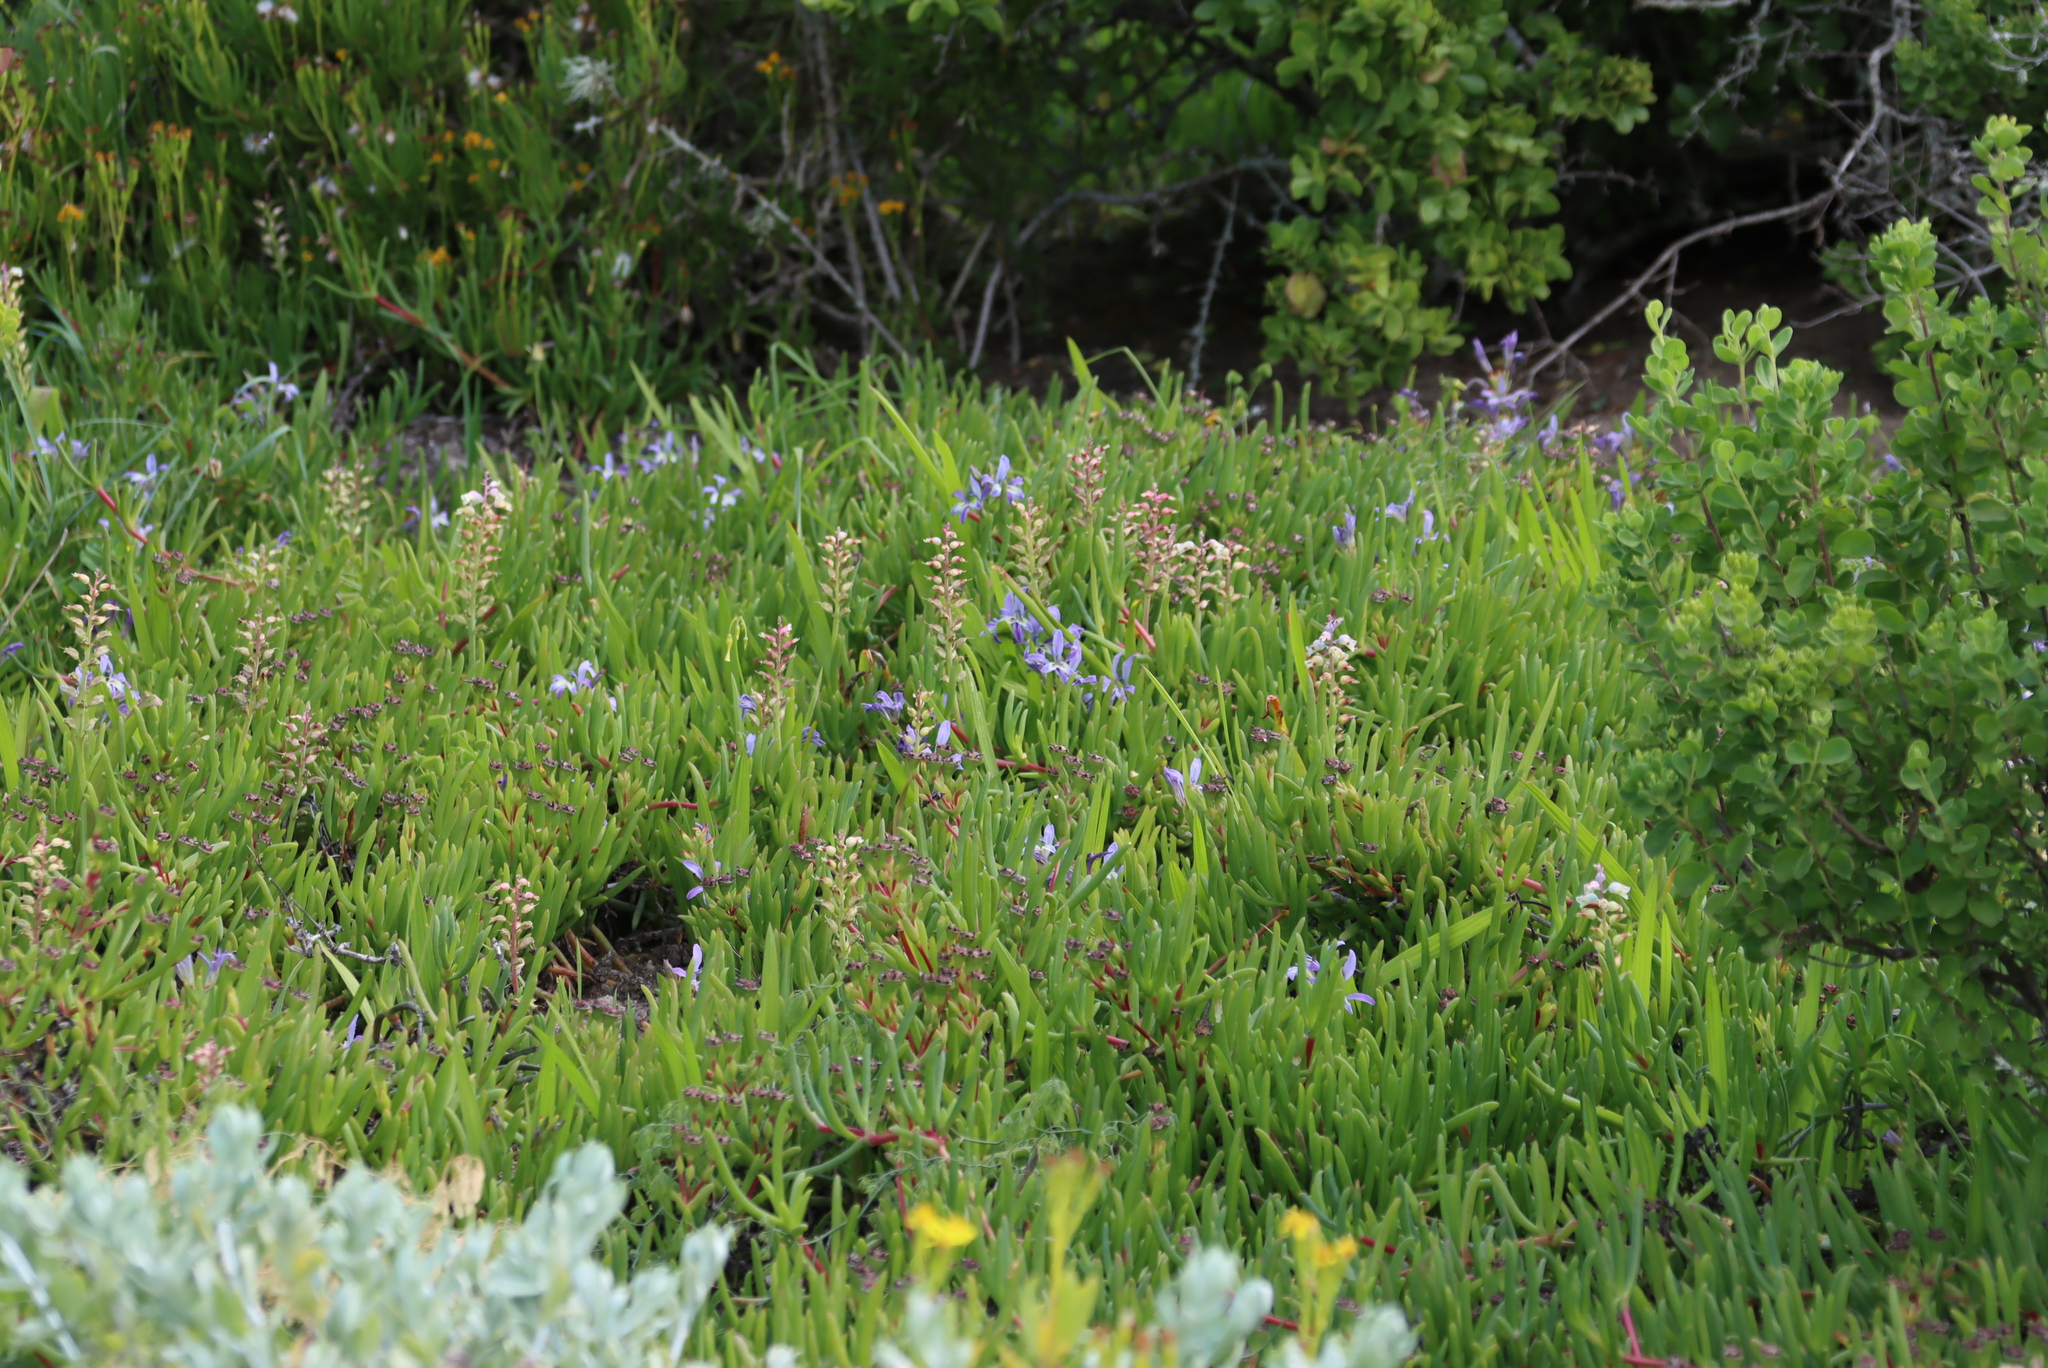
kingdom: Plantae
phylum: Tracheophyta
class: Liliopsida
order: Asparagales
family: Asparagaceae
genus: Lachenalia
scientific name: Lachenalia pallida
